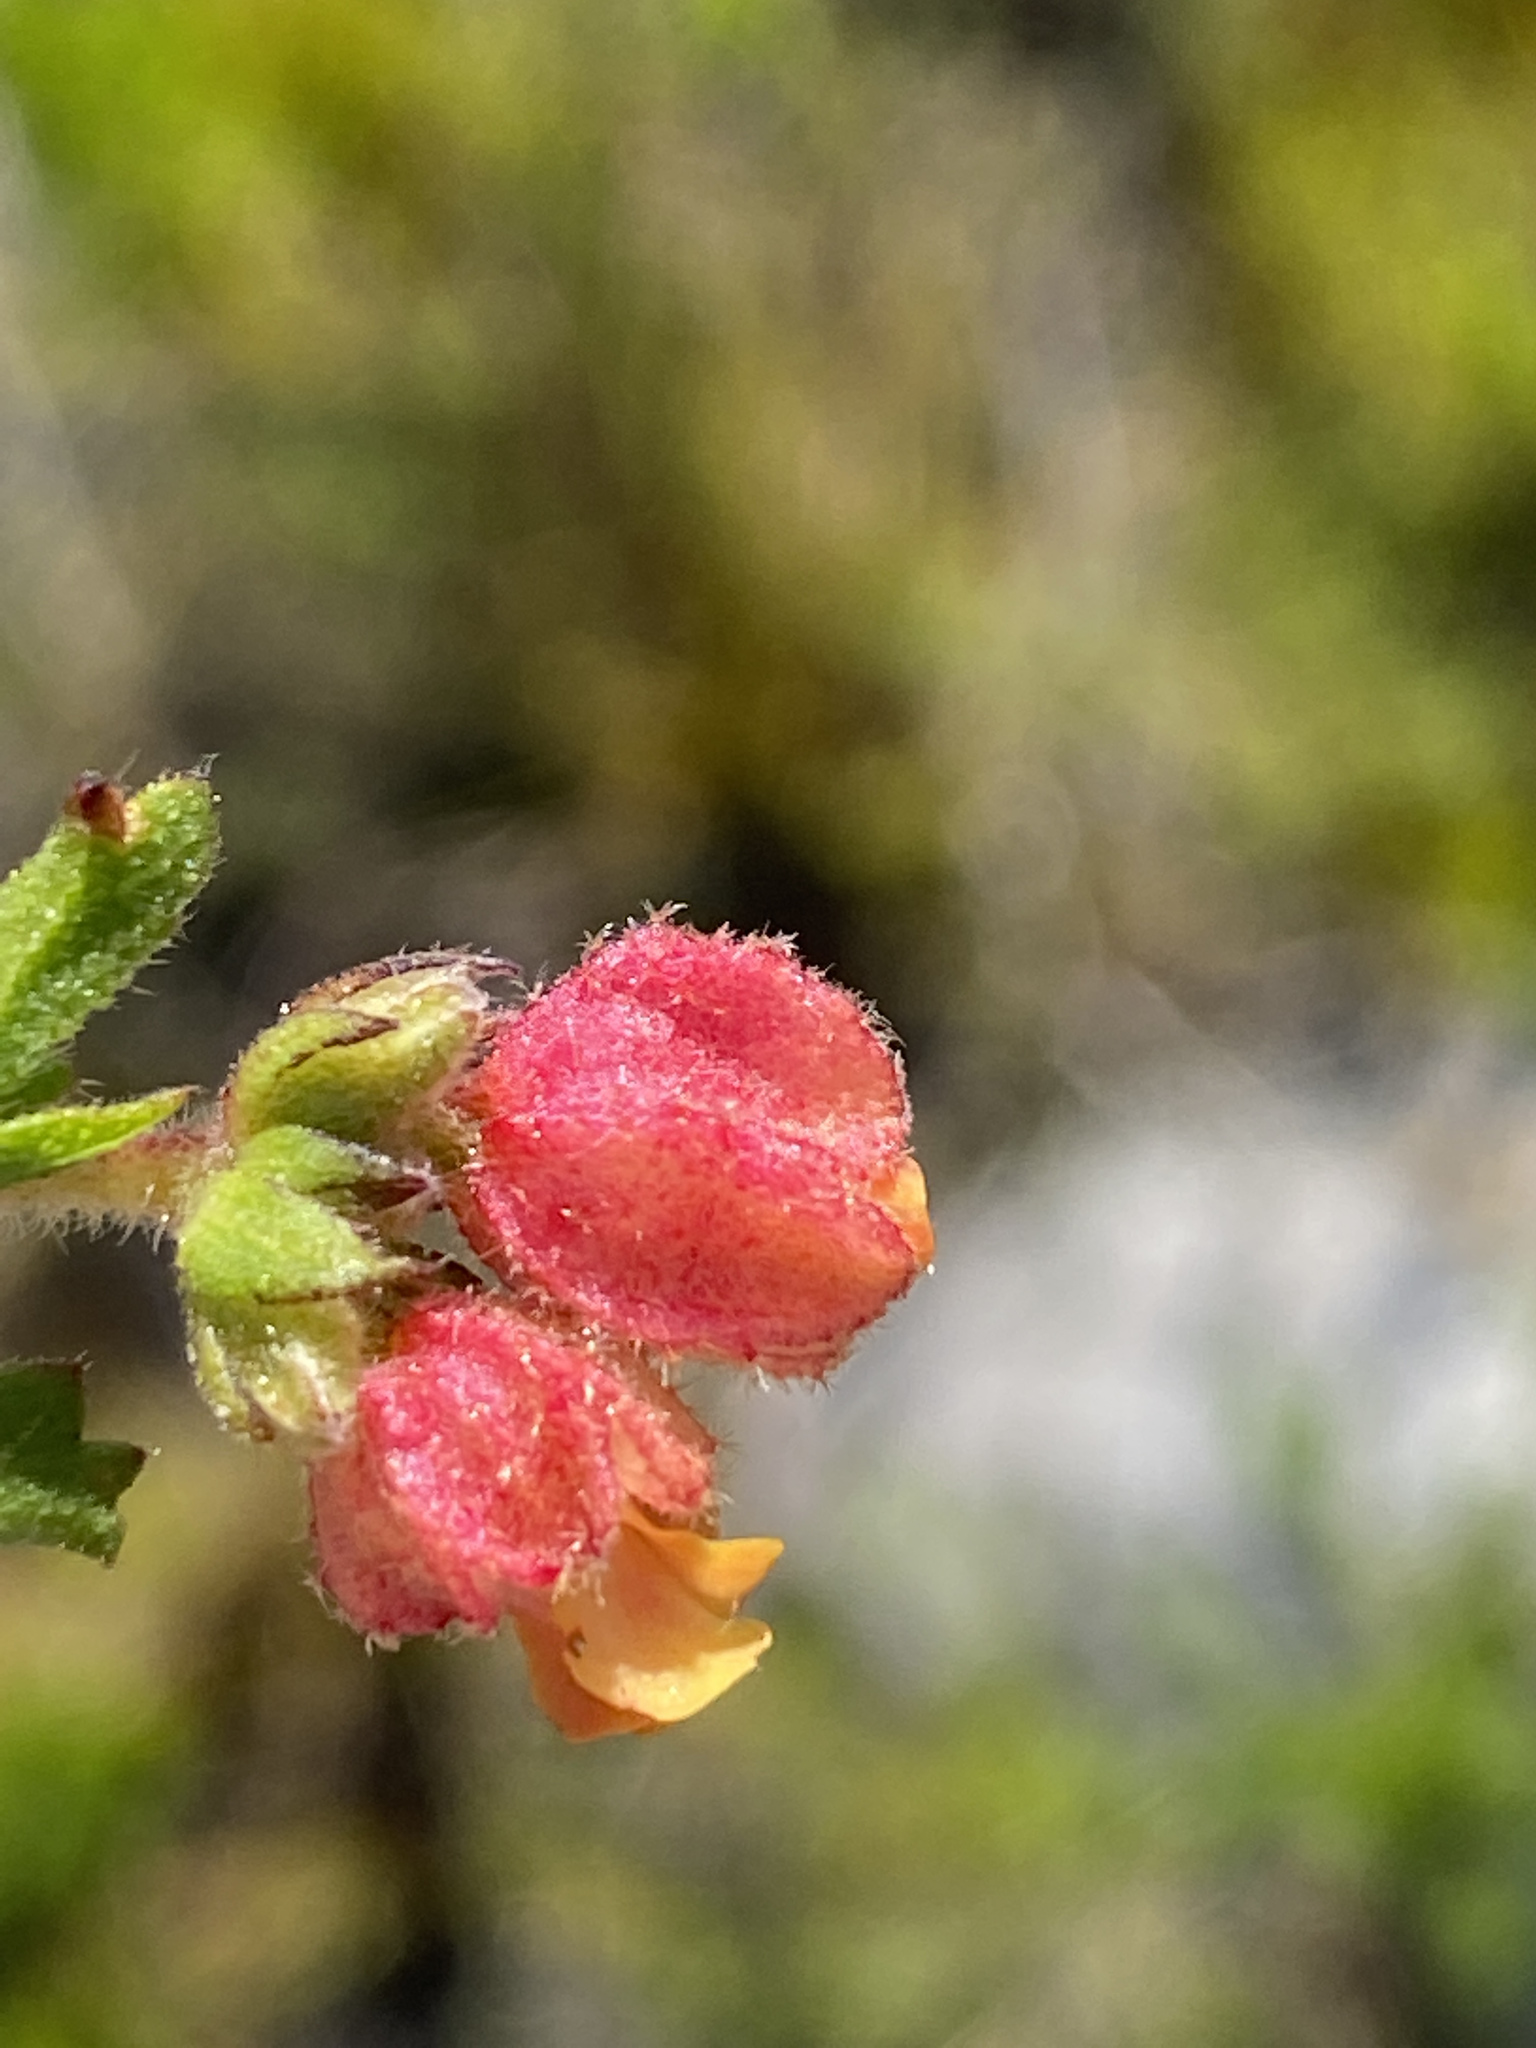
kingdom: Plantae
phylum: Tracheophyta
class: Magnoliopsida
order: Malvales
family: Malvaceae
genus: Hermannia
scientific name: Hermannia rudis
